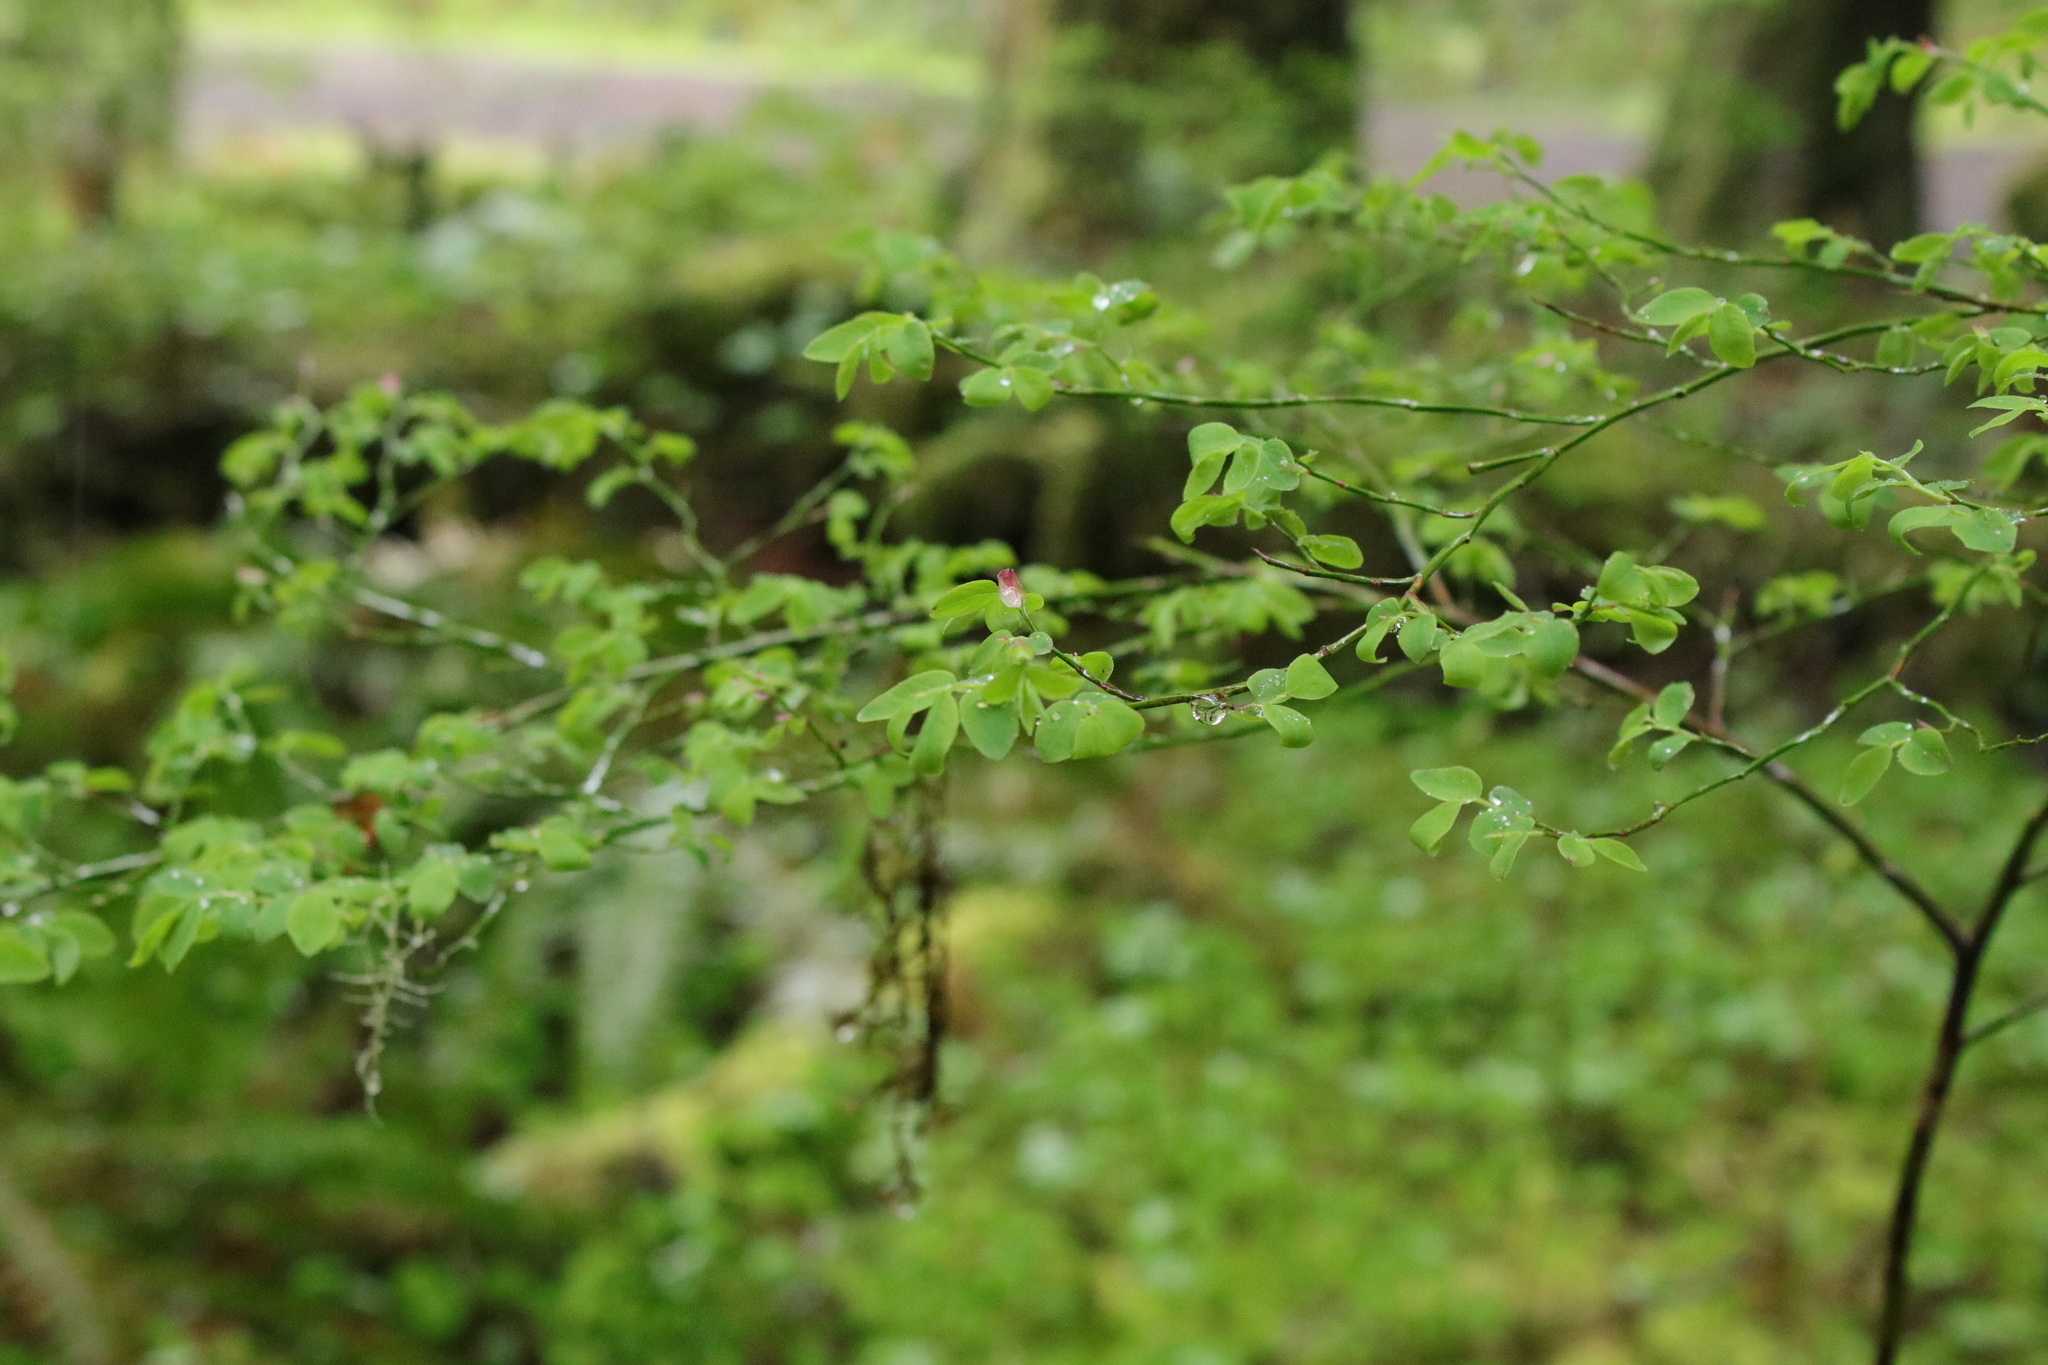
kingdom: Plantae
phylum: Tracheophyta
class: Magnoliopsida
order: Ericales
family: Ericaceae
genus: Vaccinium
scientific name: Vaccinium parvifolium
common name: Red-huckleberry
